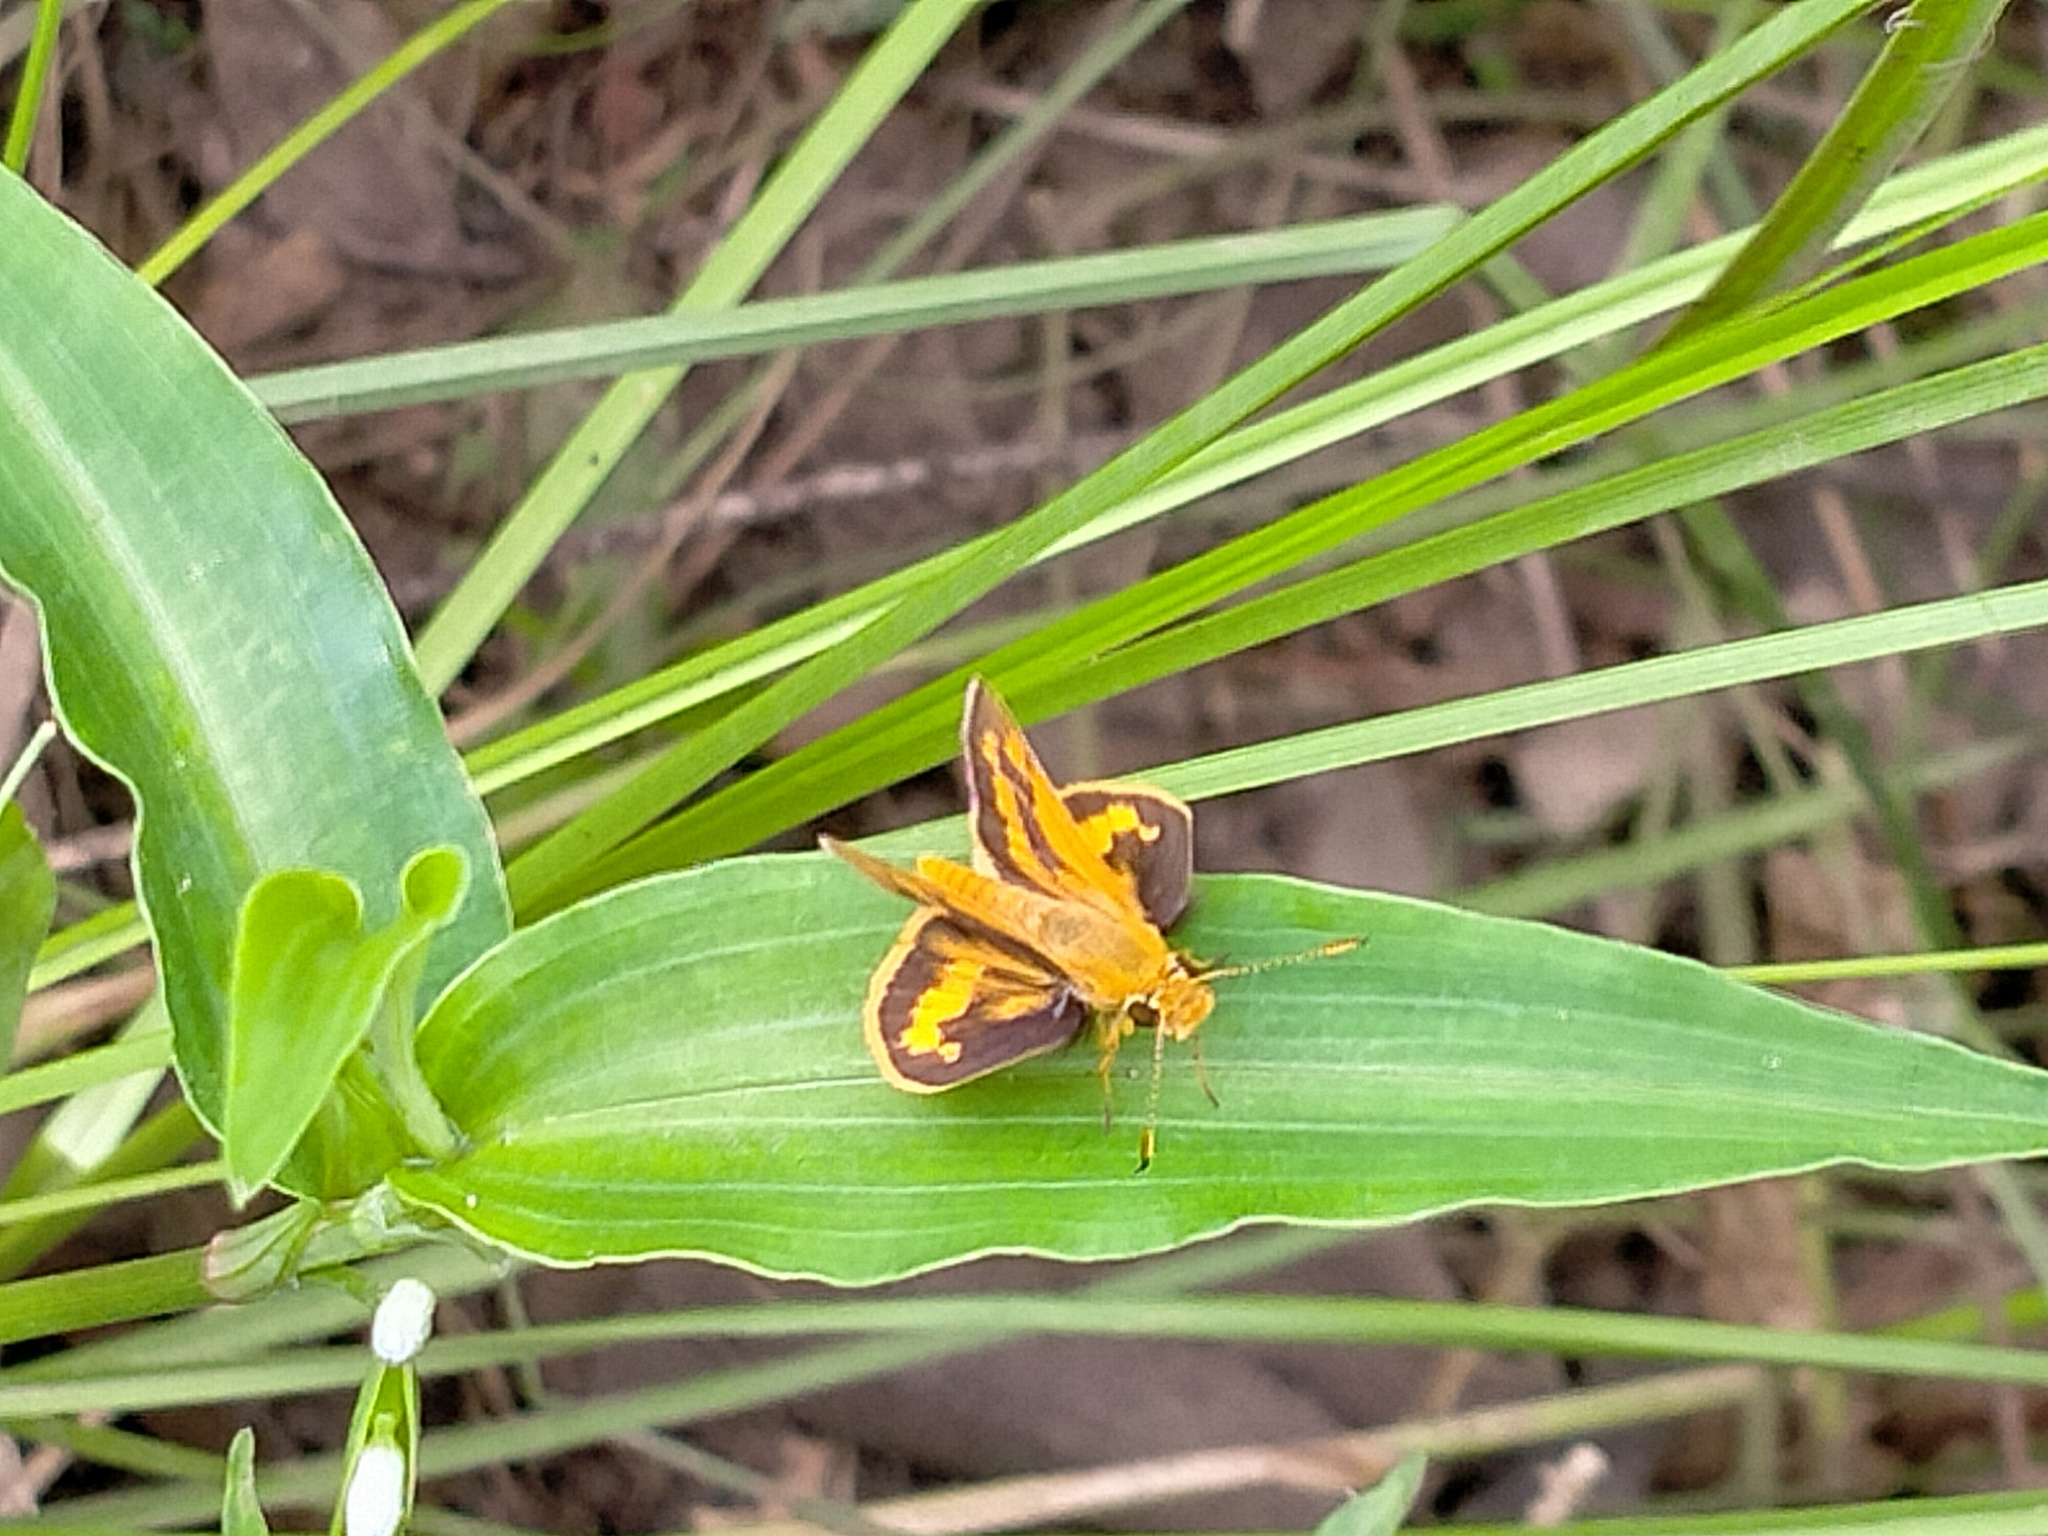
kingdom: Animalia
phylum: Arthropoda
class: Insecta
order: Lepidoptera
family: Hesperiidae
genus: Ocybadistes
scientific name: Ocybadistes walkeri
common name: Yellow-banded dart
